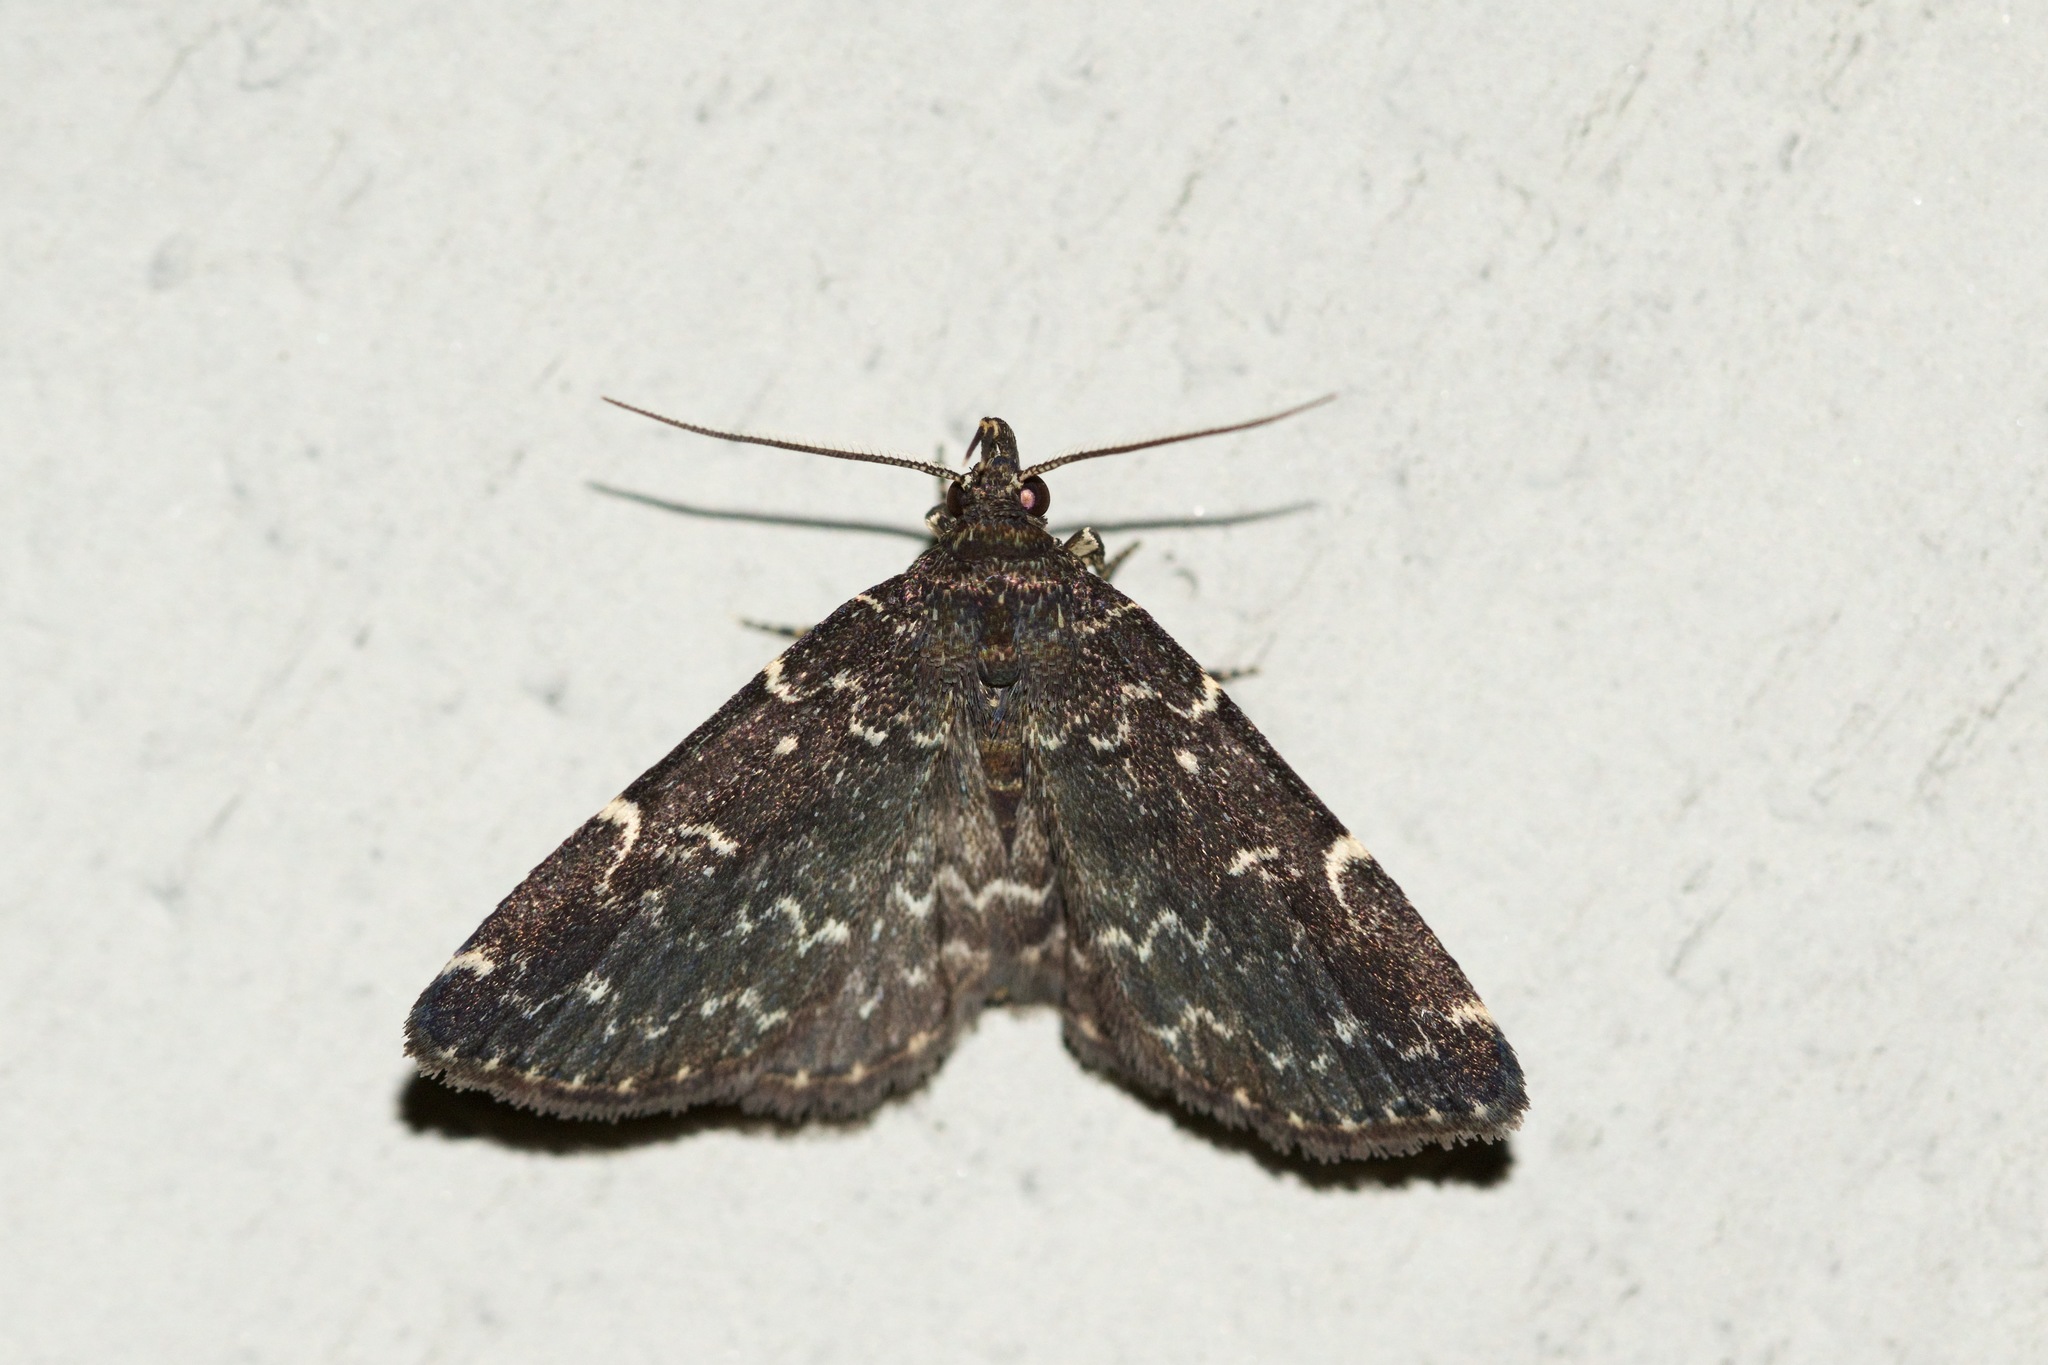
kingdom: Animalia
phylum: Arthropoda
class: Insecta
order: Lepidoptera
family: Erebidae
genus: Idia
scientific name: Idia scobialis
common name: Smoky idia moth
